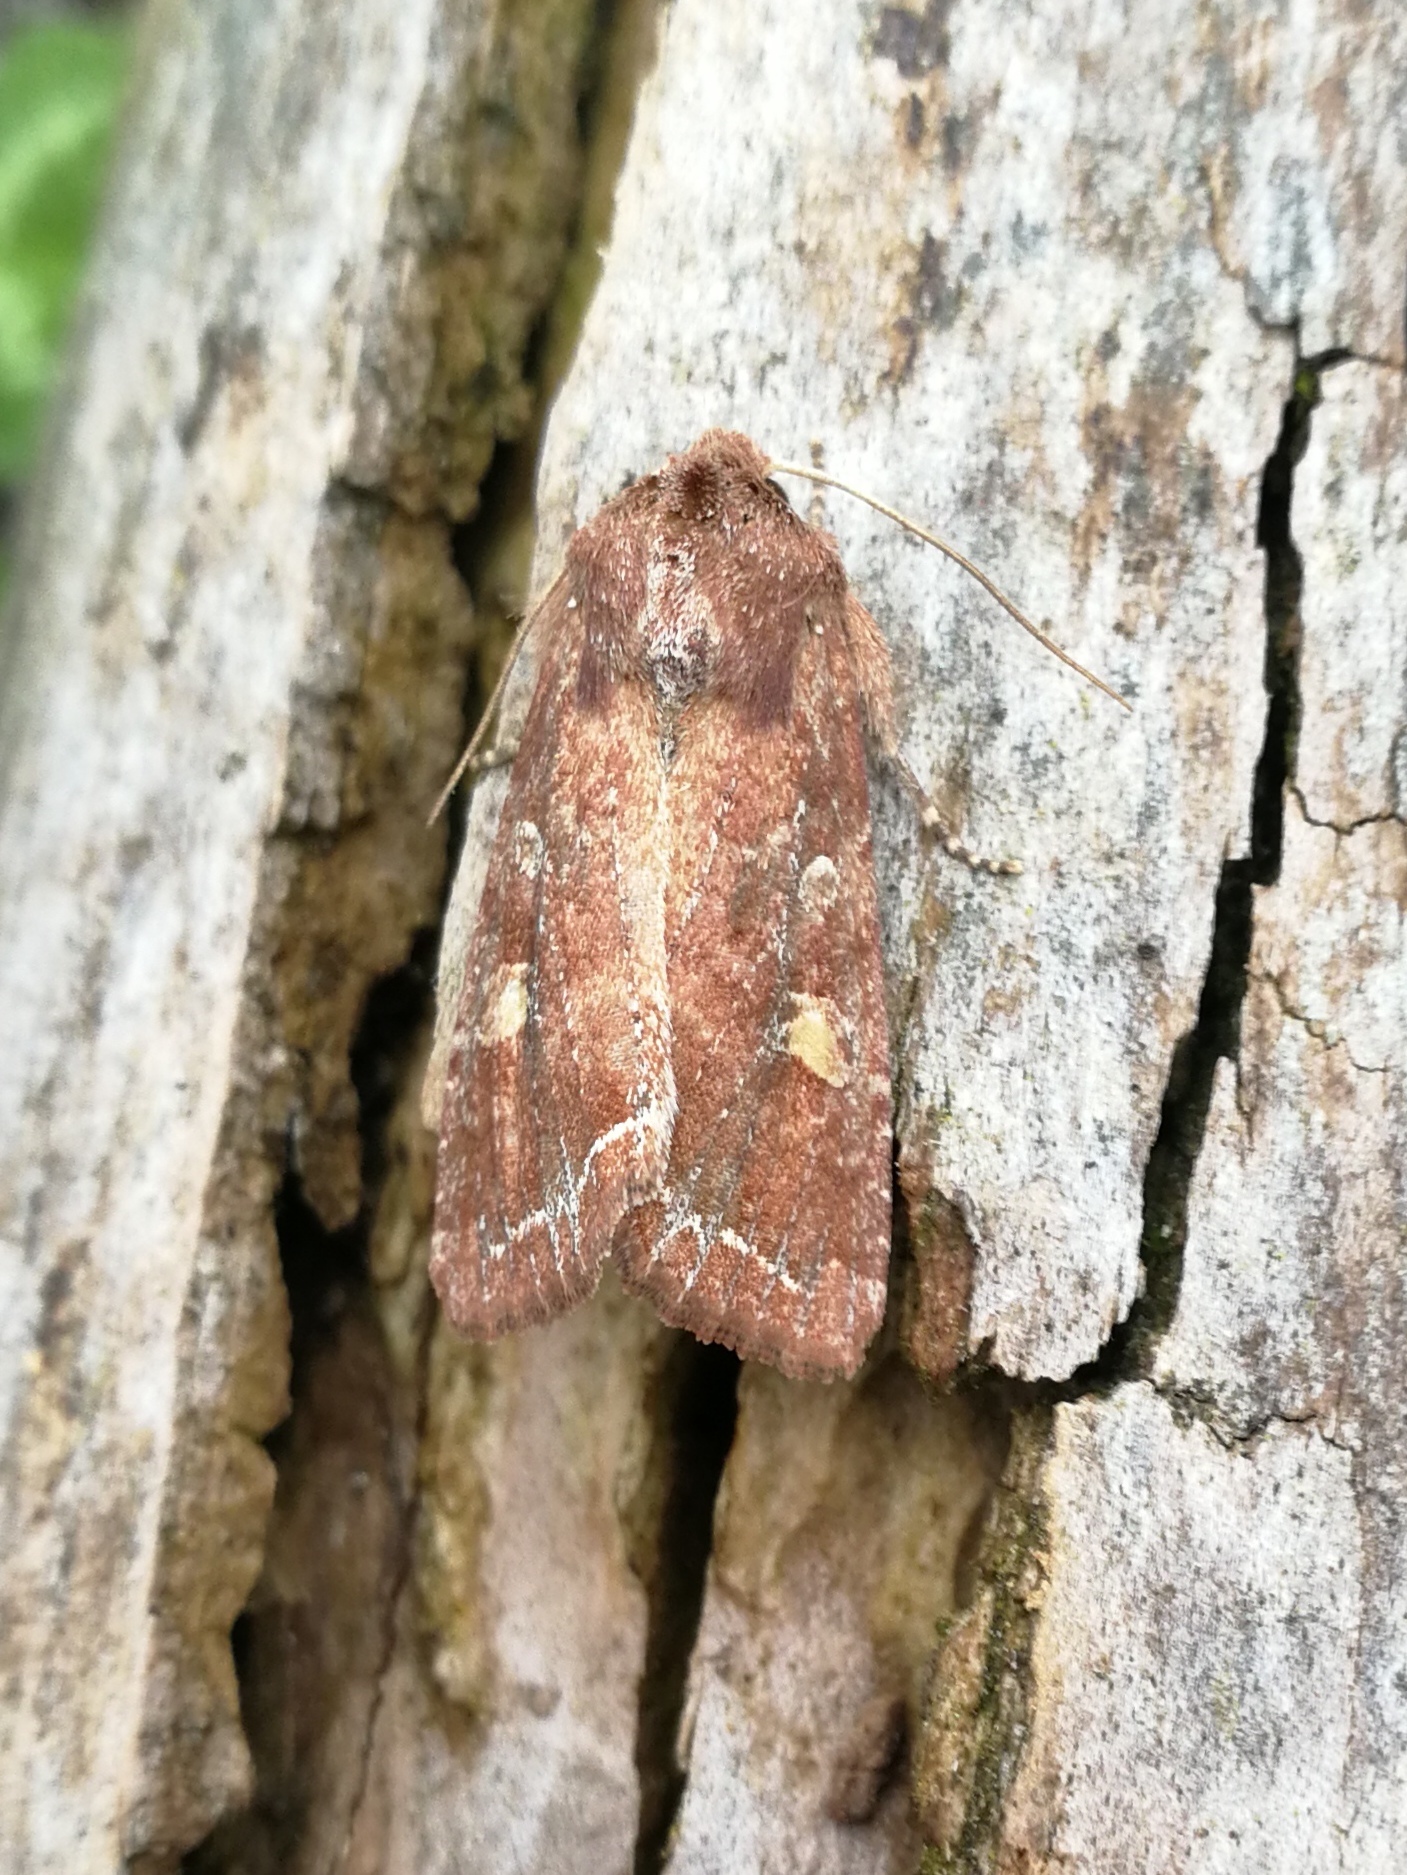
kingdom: Animalia
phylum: Arthropoda
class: Insecta
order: Lepidoptera
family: Noctuidae
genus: Lacanobia
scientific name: Lacanobia oleracea
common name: Bright-line brown-eye
